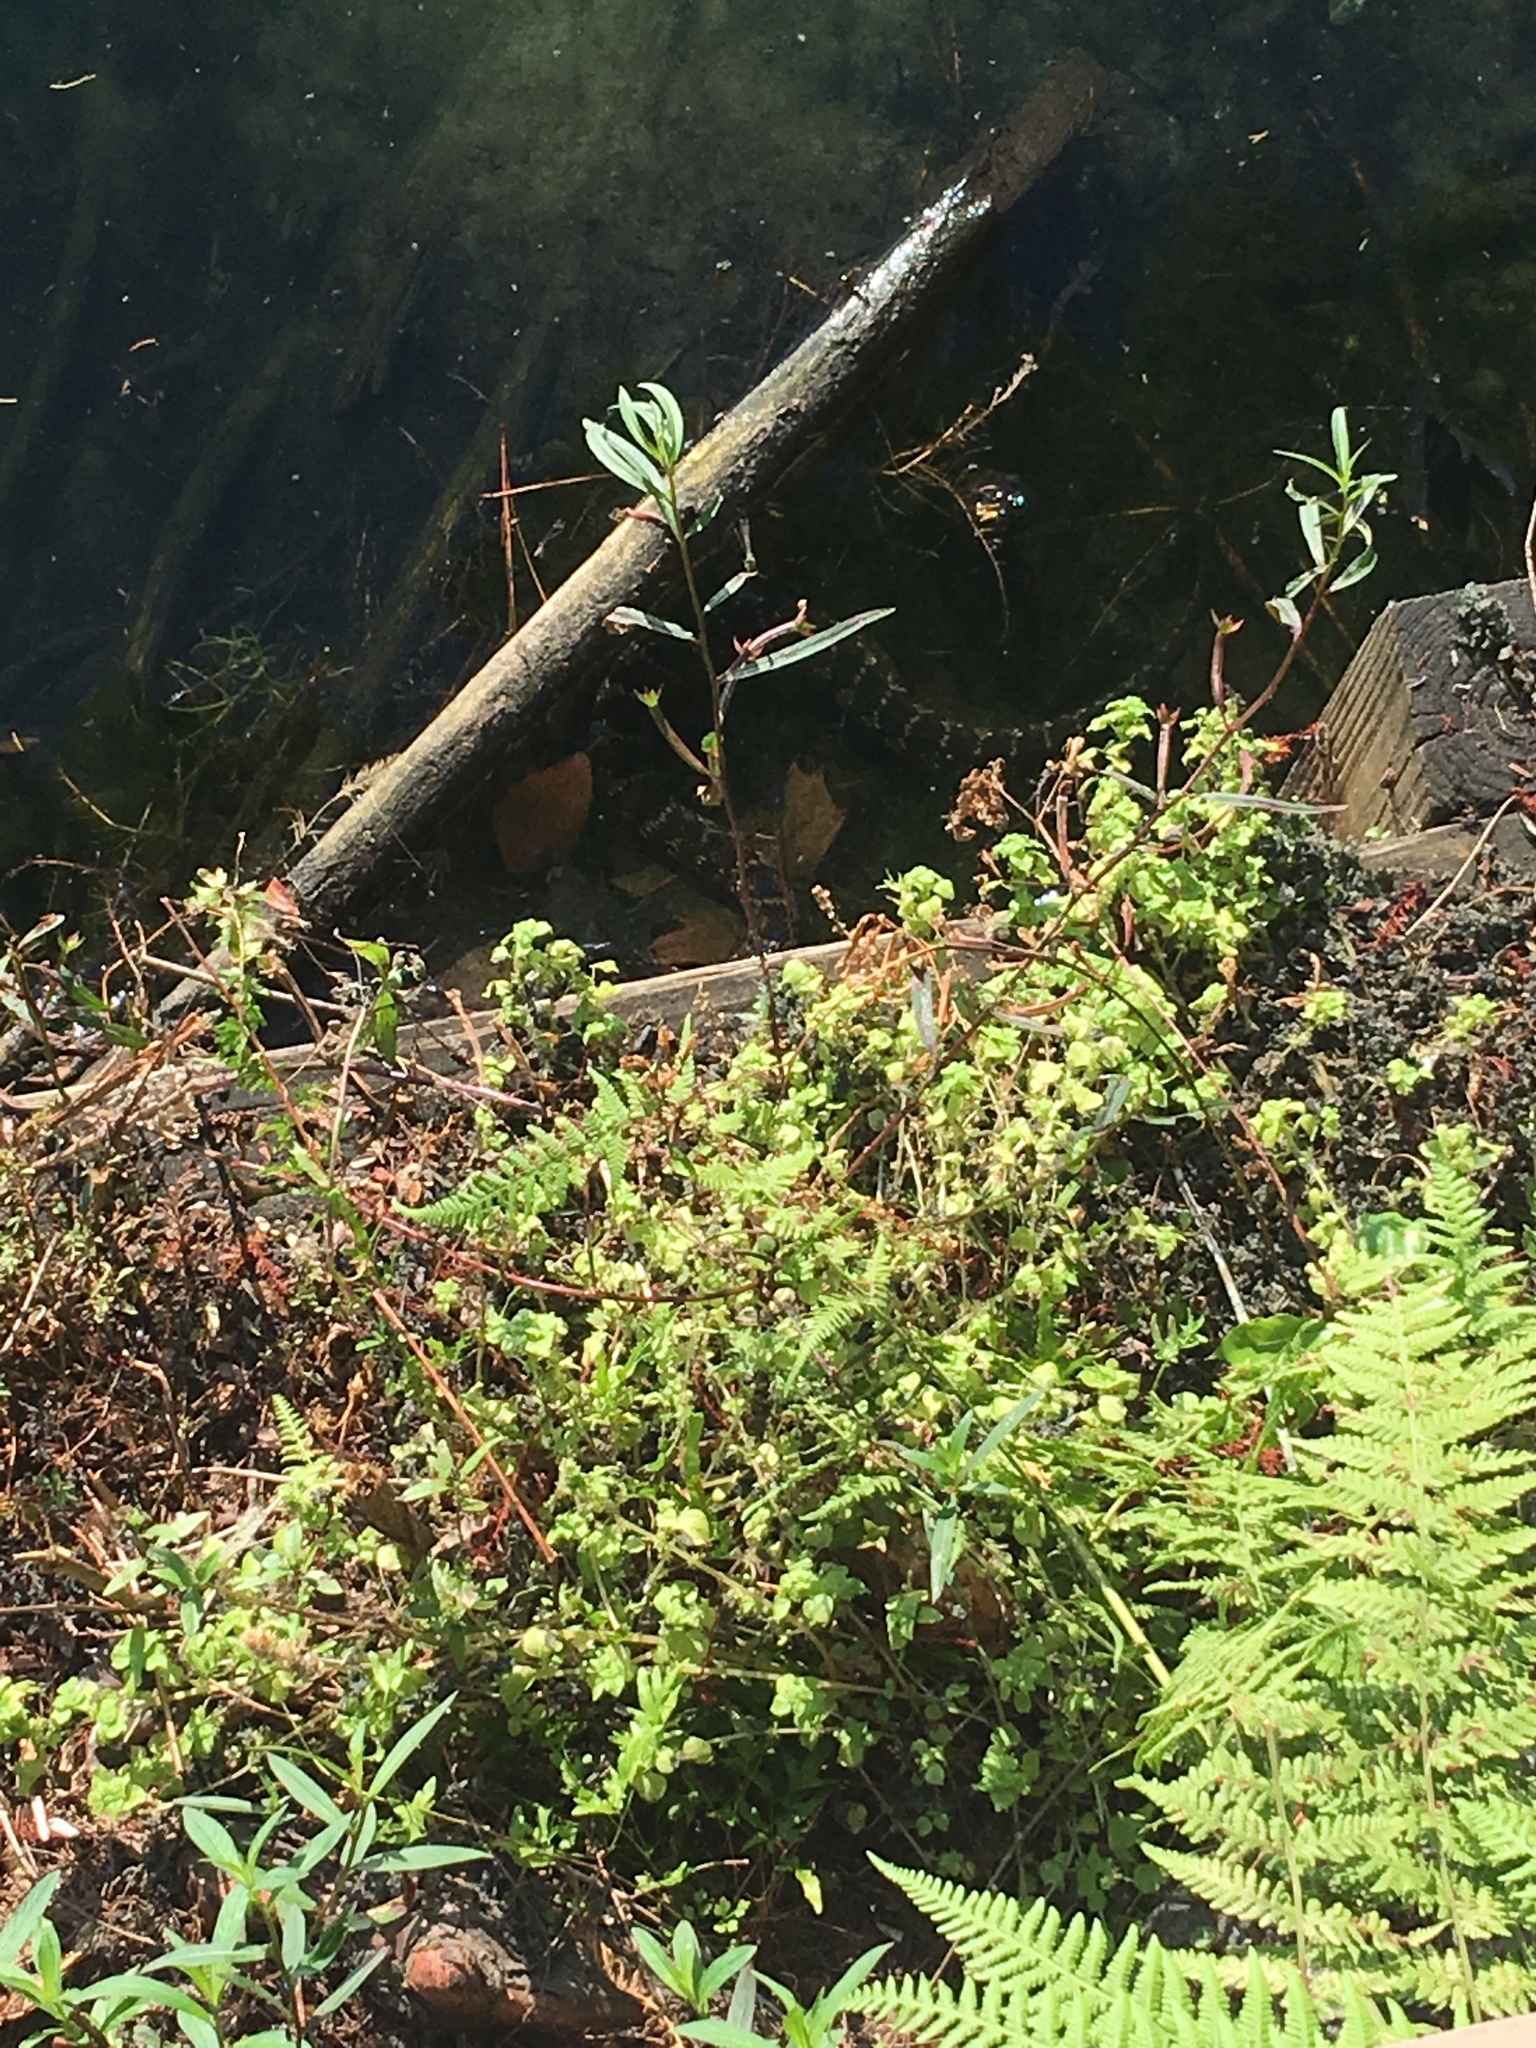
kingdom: Animalia
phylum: Chordata
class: Squamata
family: Colubridae
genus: Nerodia
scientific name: Nerodia fasciata
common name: Southern water snake
